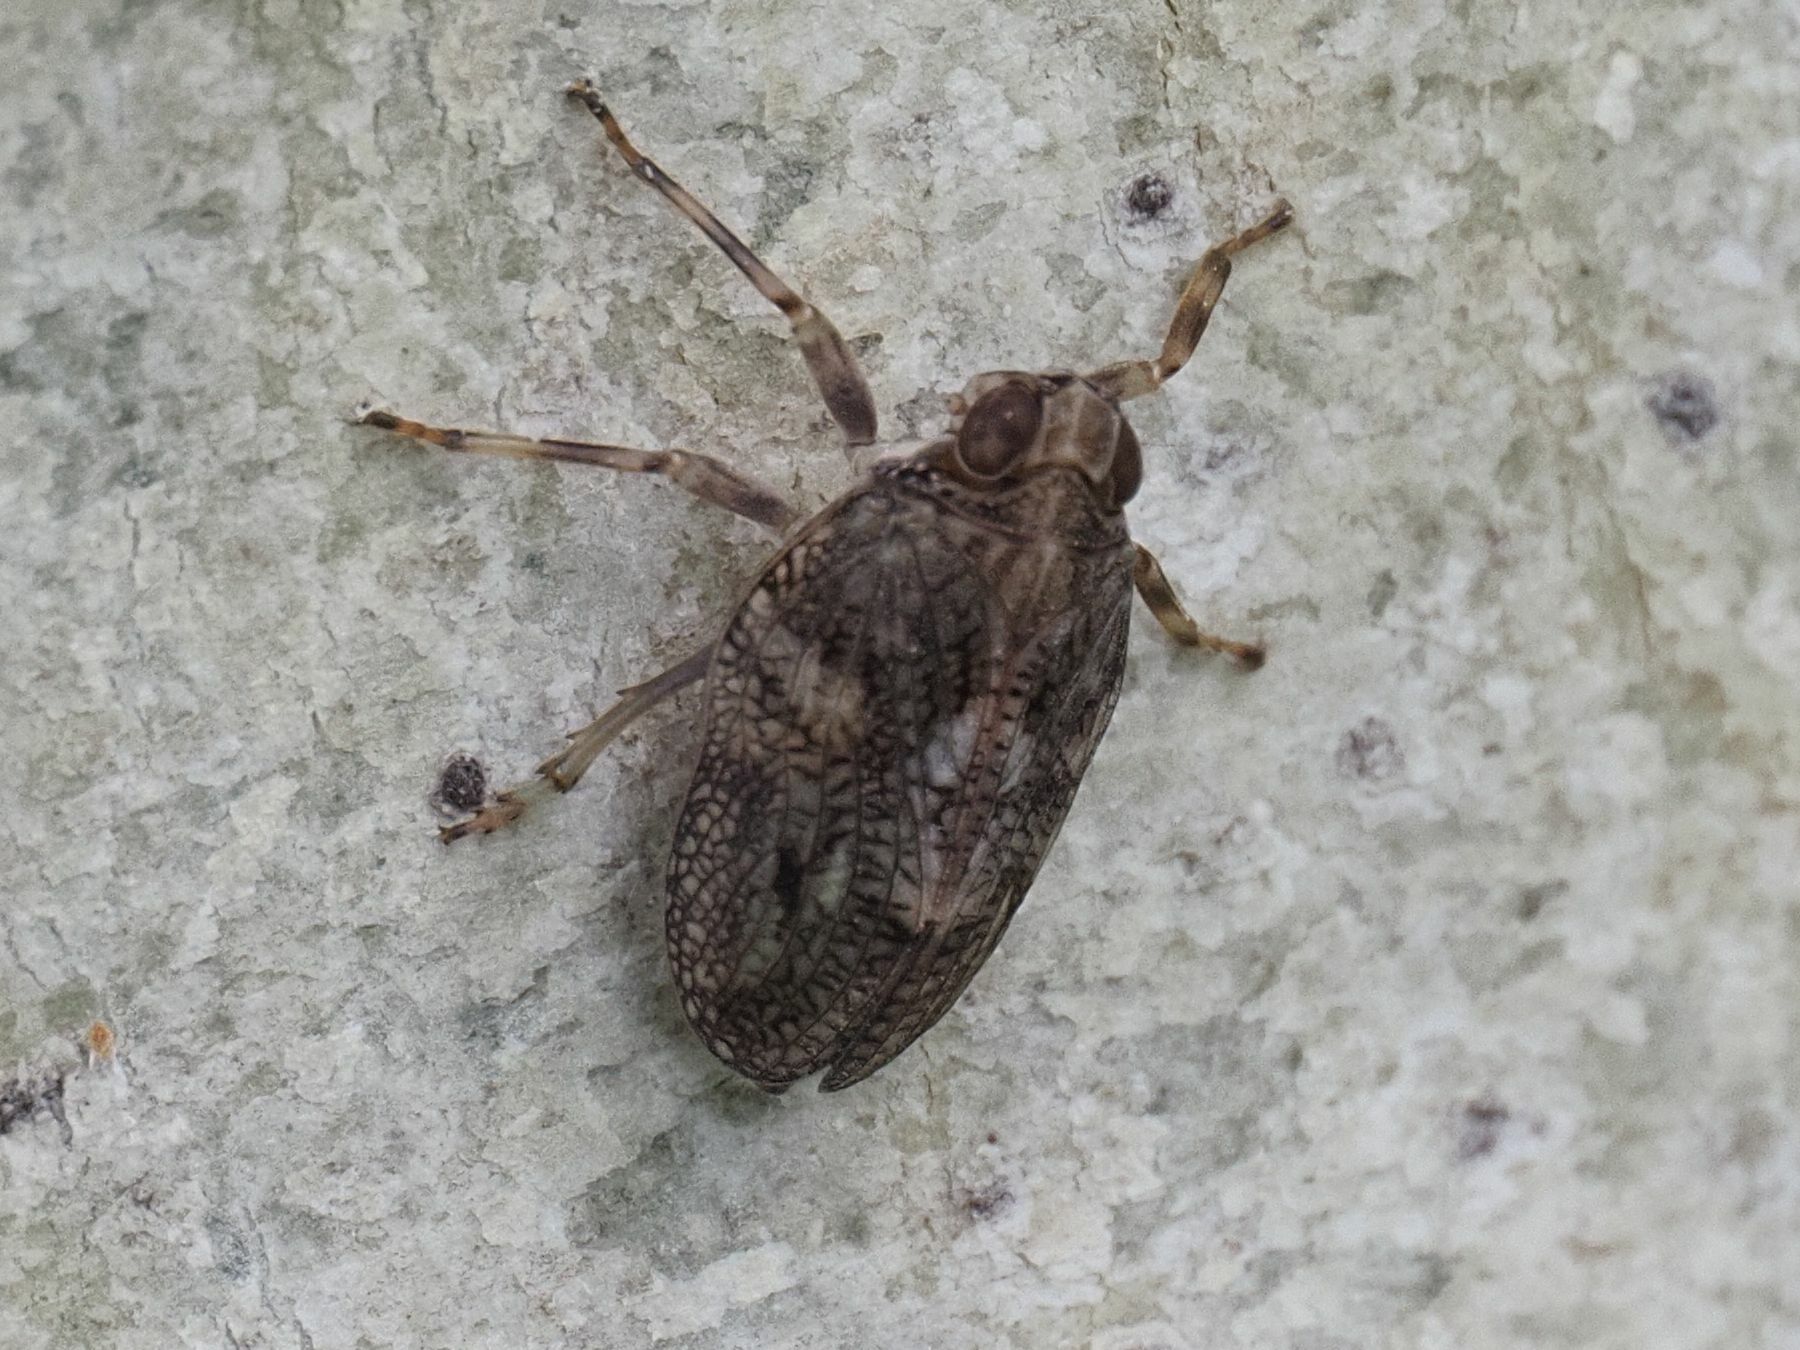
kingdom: Animalia
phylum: Arthropoda
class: Insecta
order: Hemiptera
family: Issidae
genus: Issus
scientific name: Issus coleoptratus
